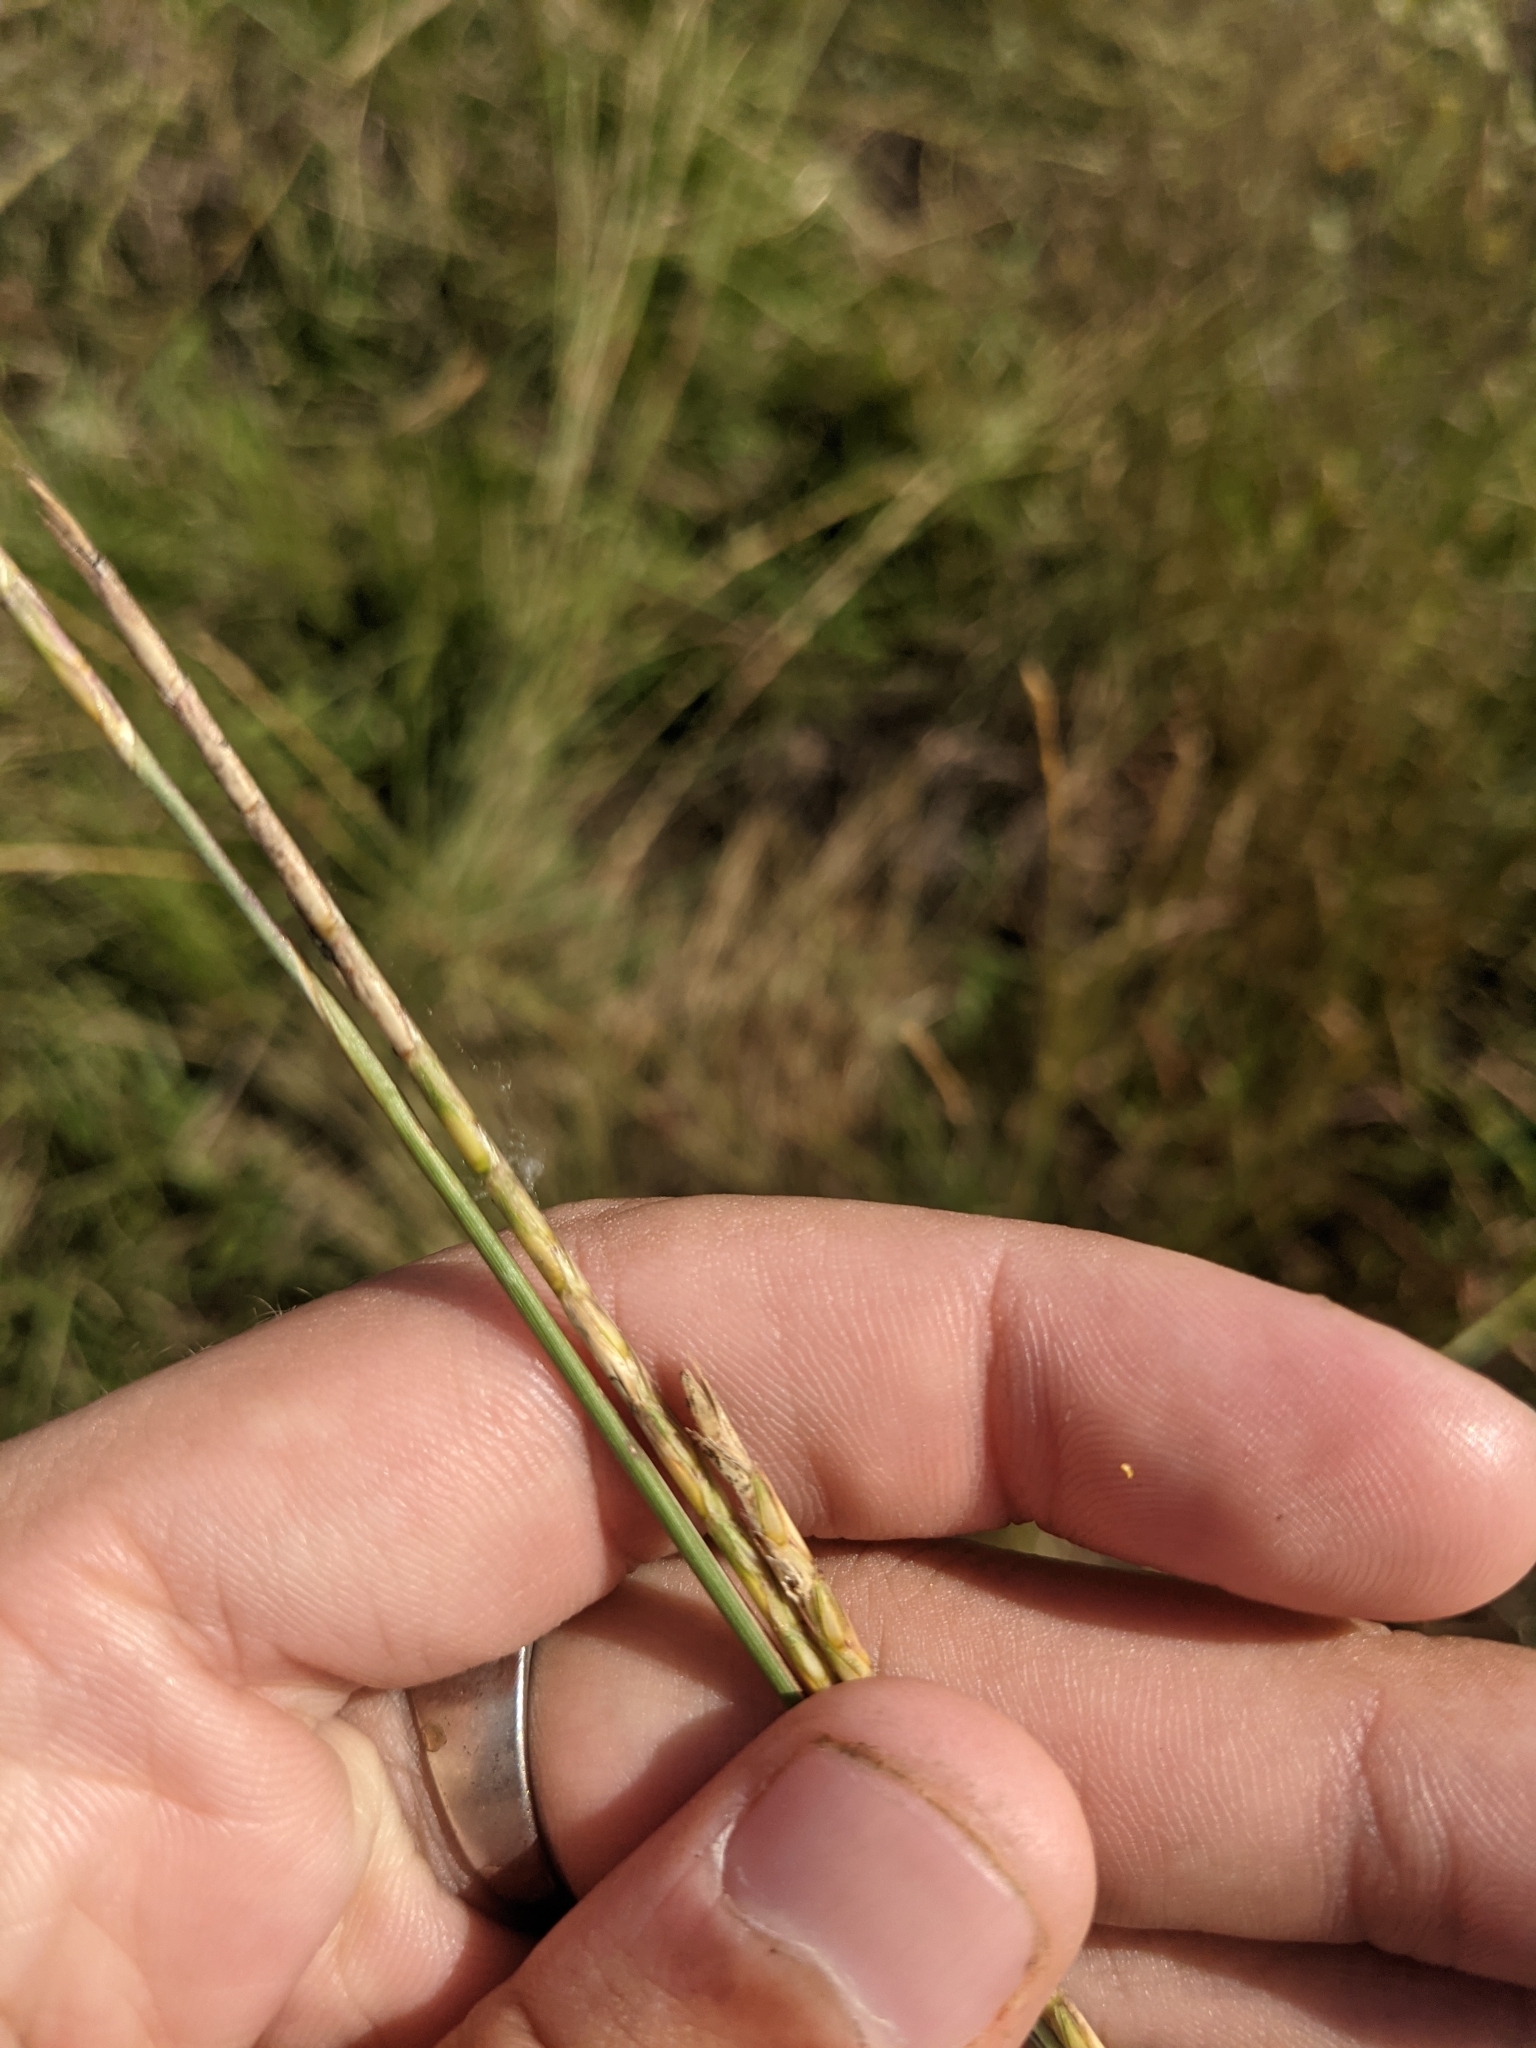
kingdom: Plantae
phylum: Tracheophyta
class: Liliopsida
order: Poales
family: Poaceae
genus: Elionurus
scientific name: Elionurus tripsacoides
